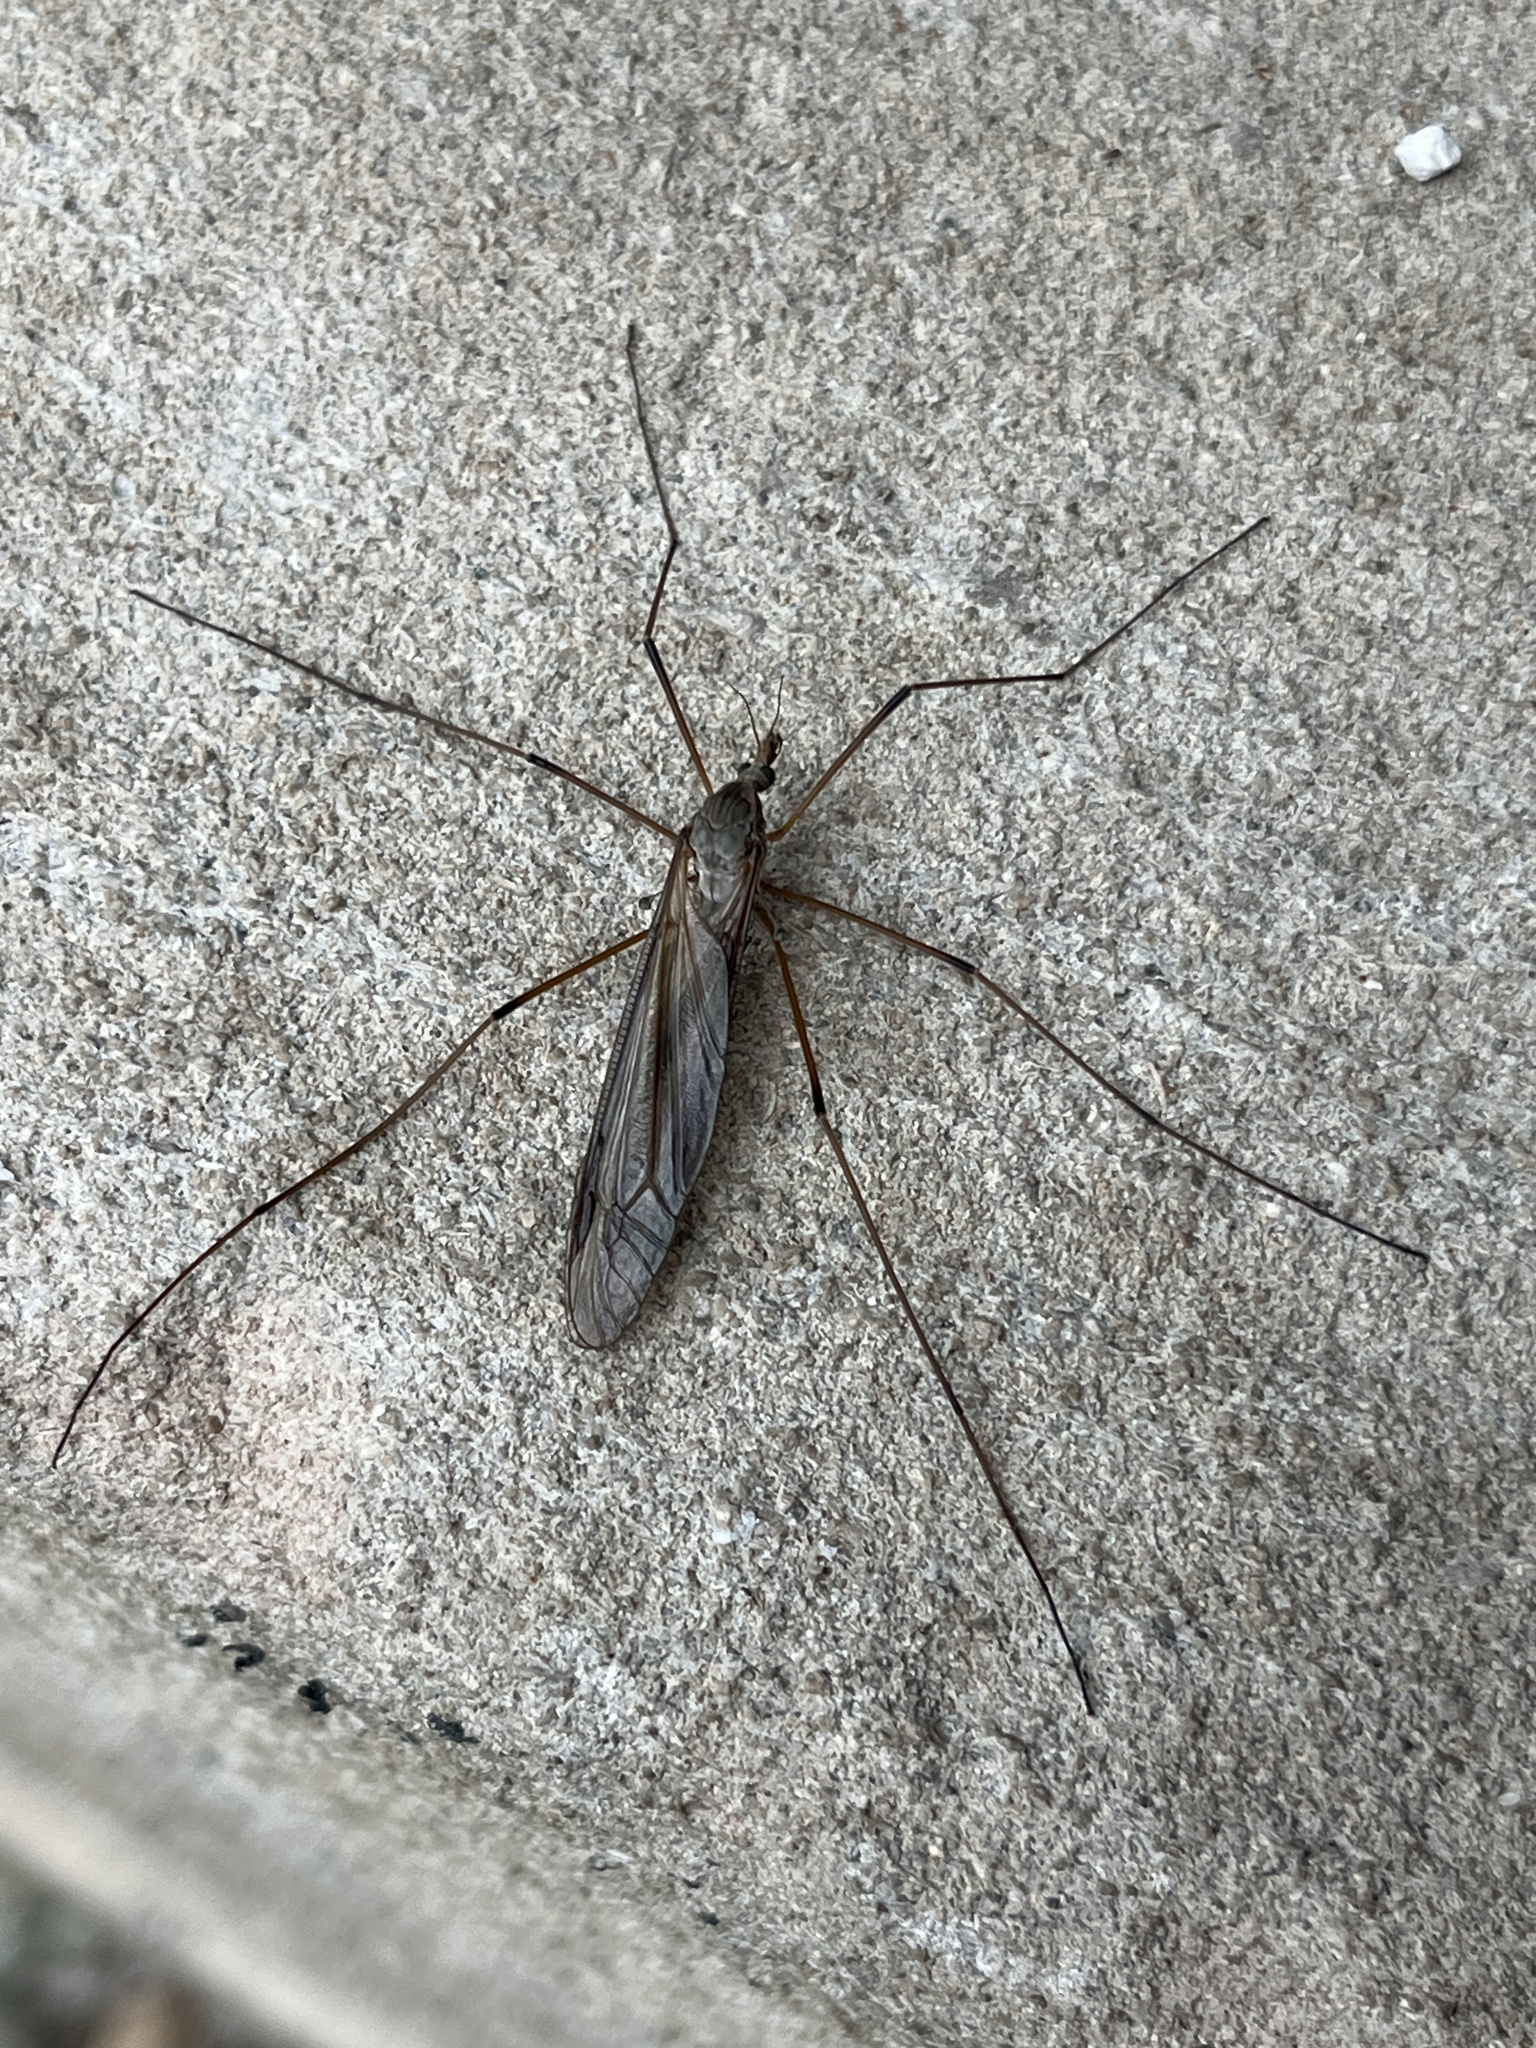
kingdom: Animalia
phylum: Arthropoda
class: Insecta
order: Diptera
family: Tipulidae
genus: Tipula
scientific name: Tipula oleracea
